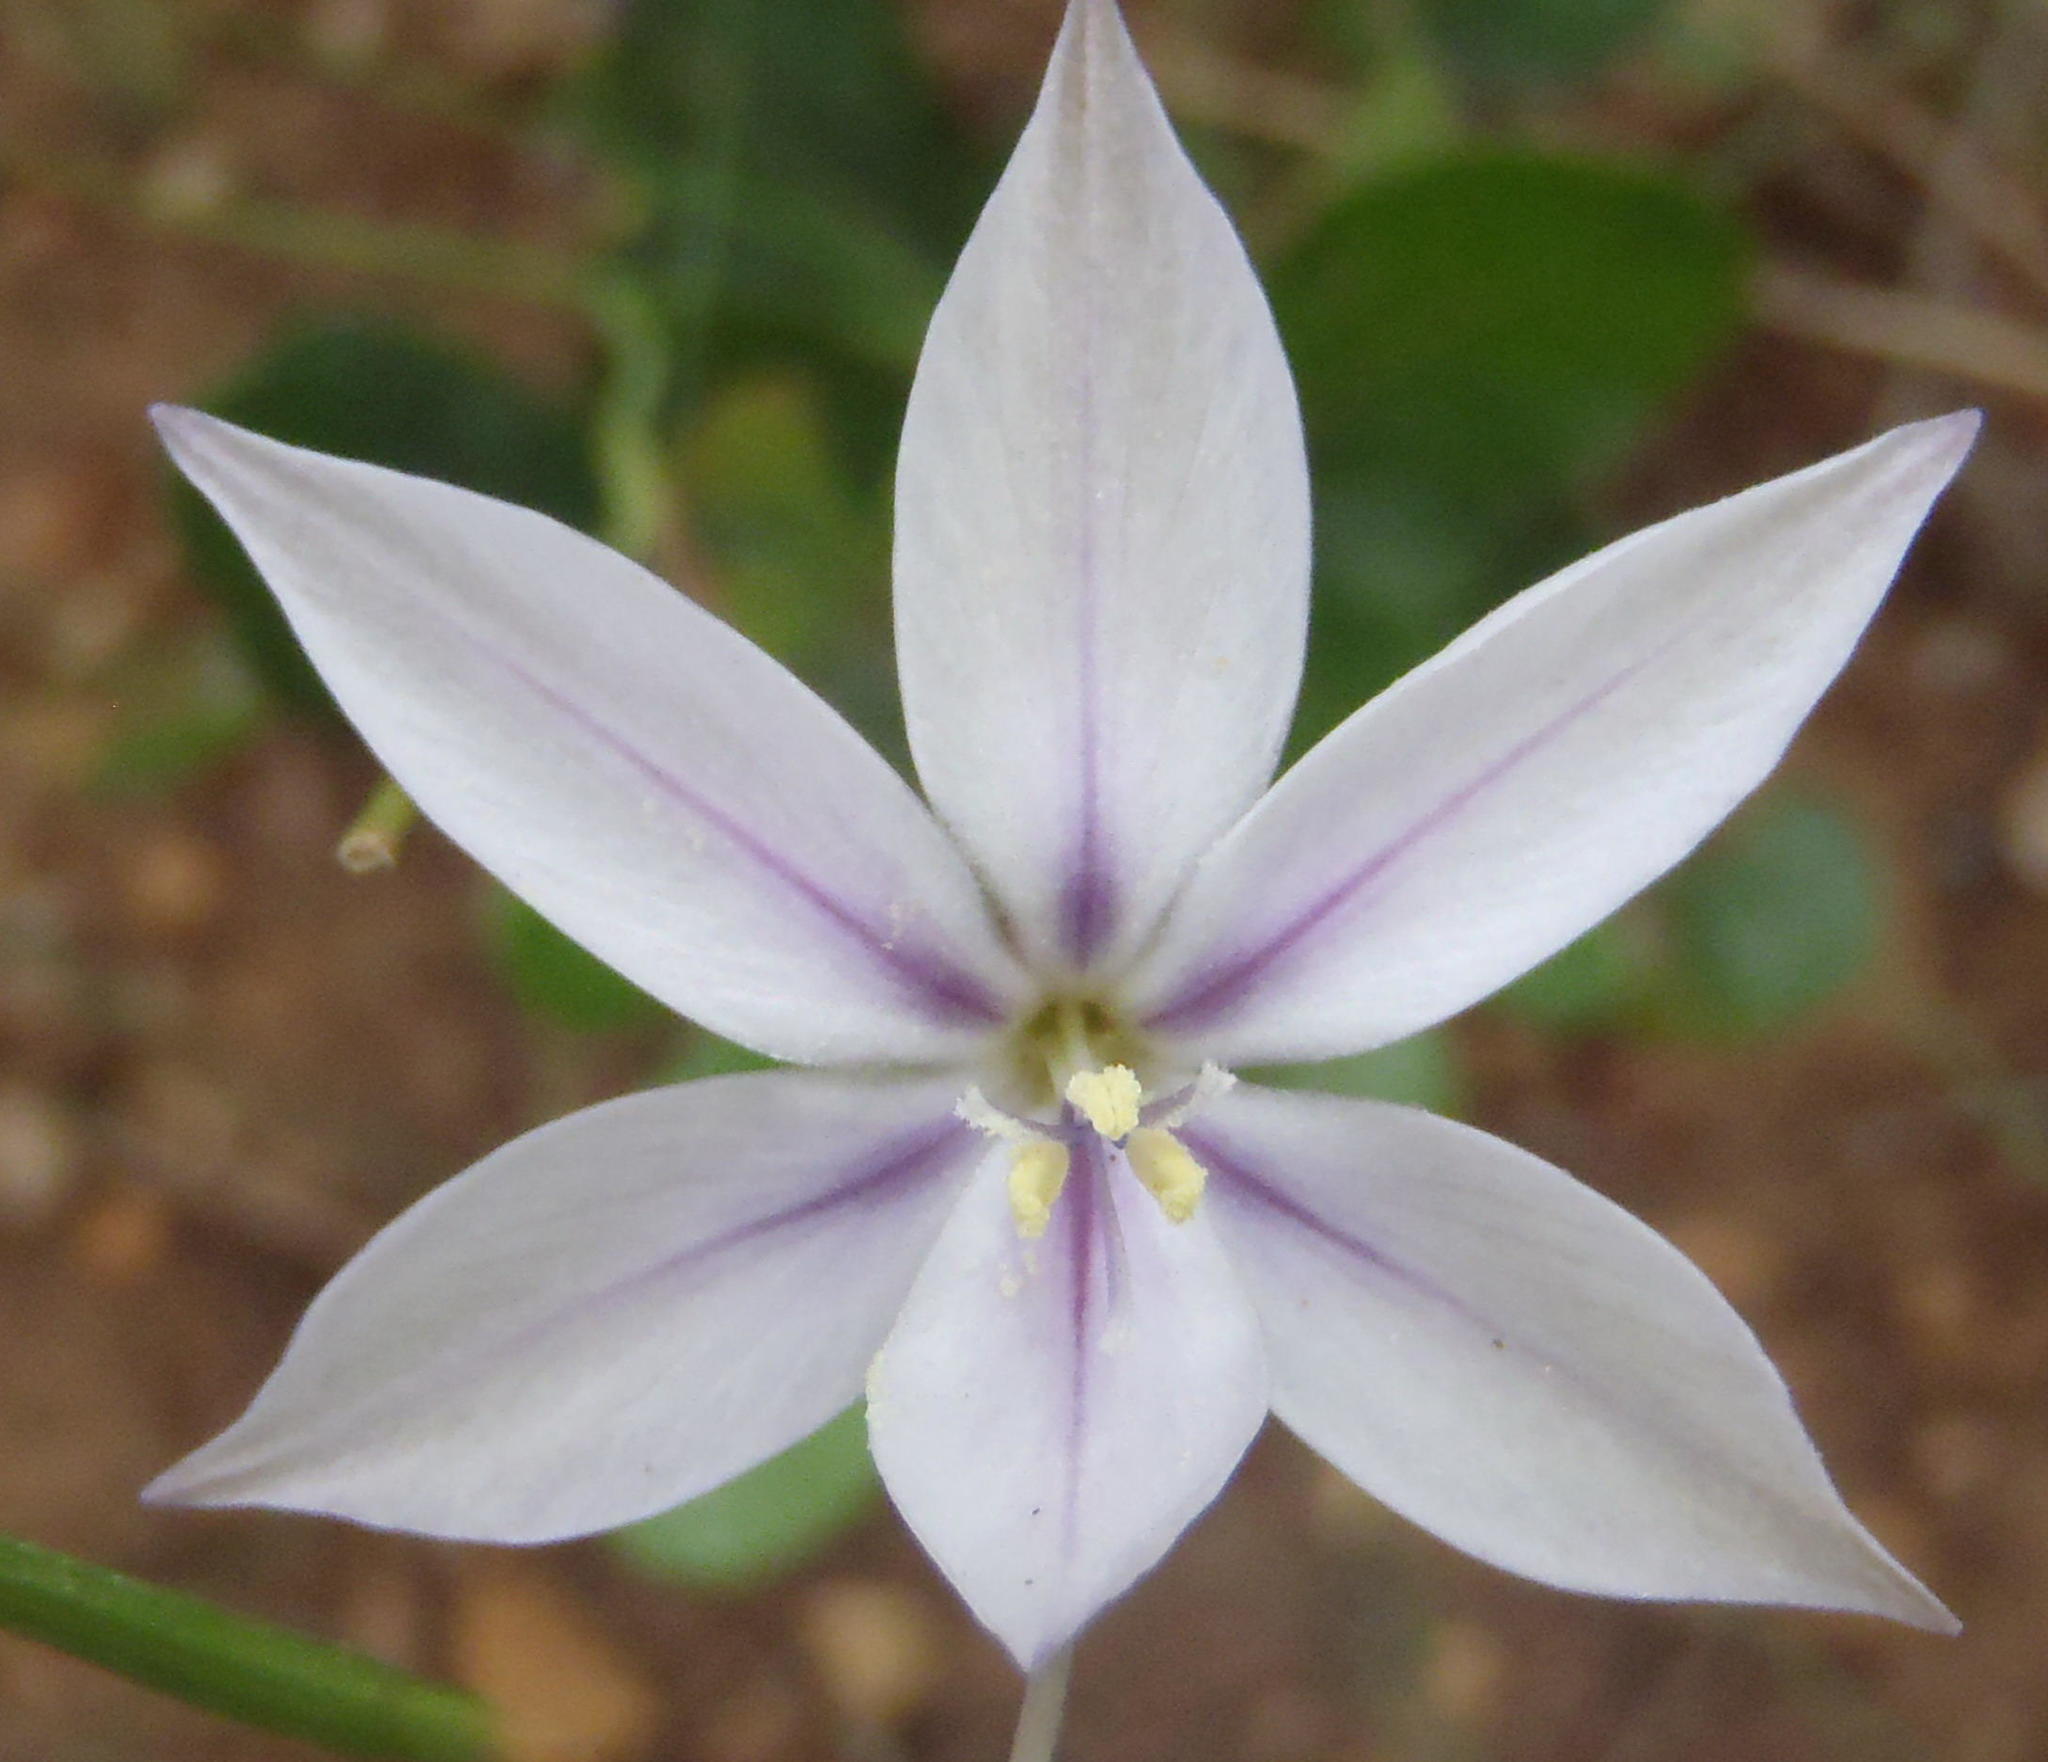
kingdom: Plantae
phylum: Tracheophyta
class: Liliopsida
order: Asparagales
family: Iridaceae
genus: Gladiolus
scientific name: Gladiolus stellatus
